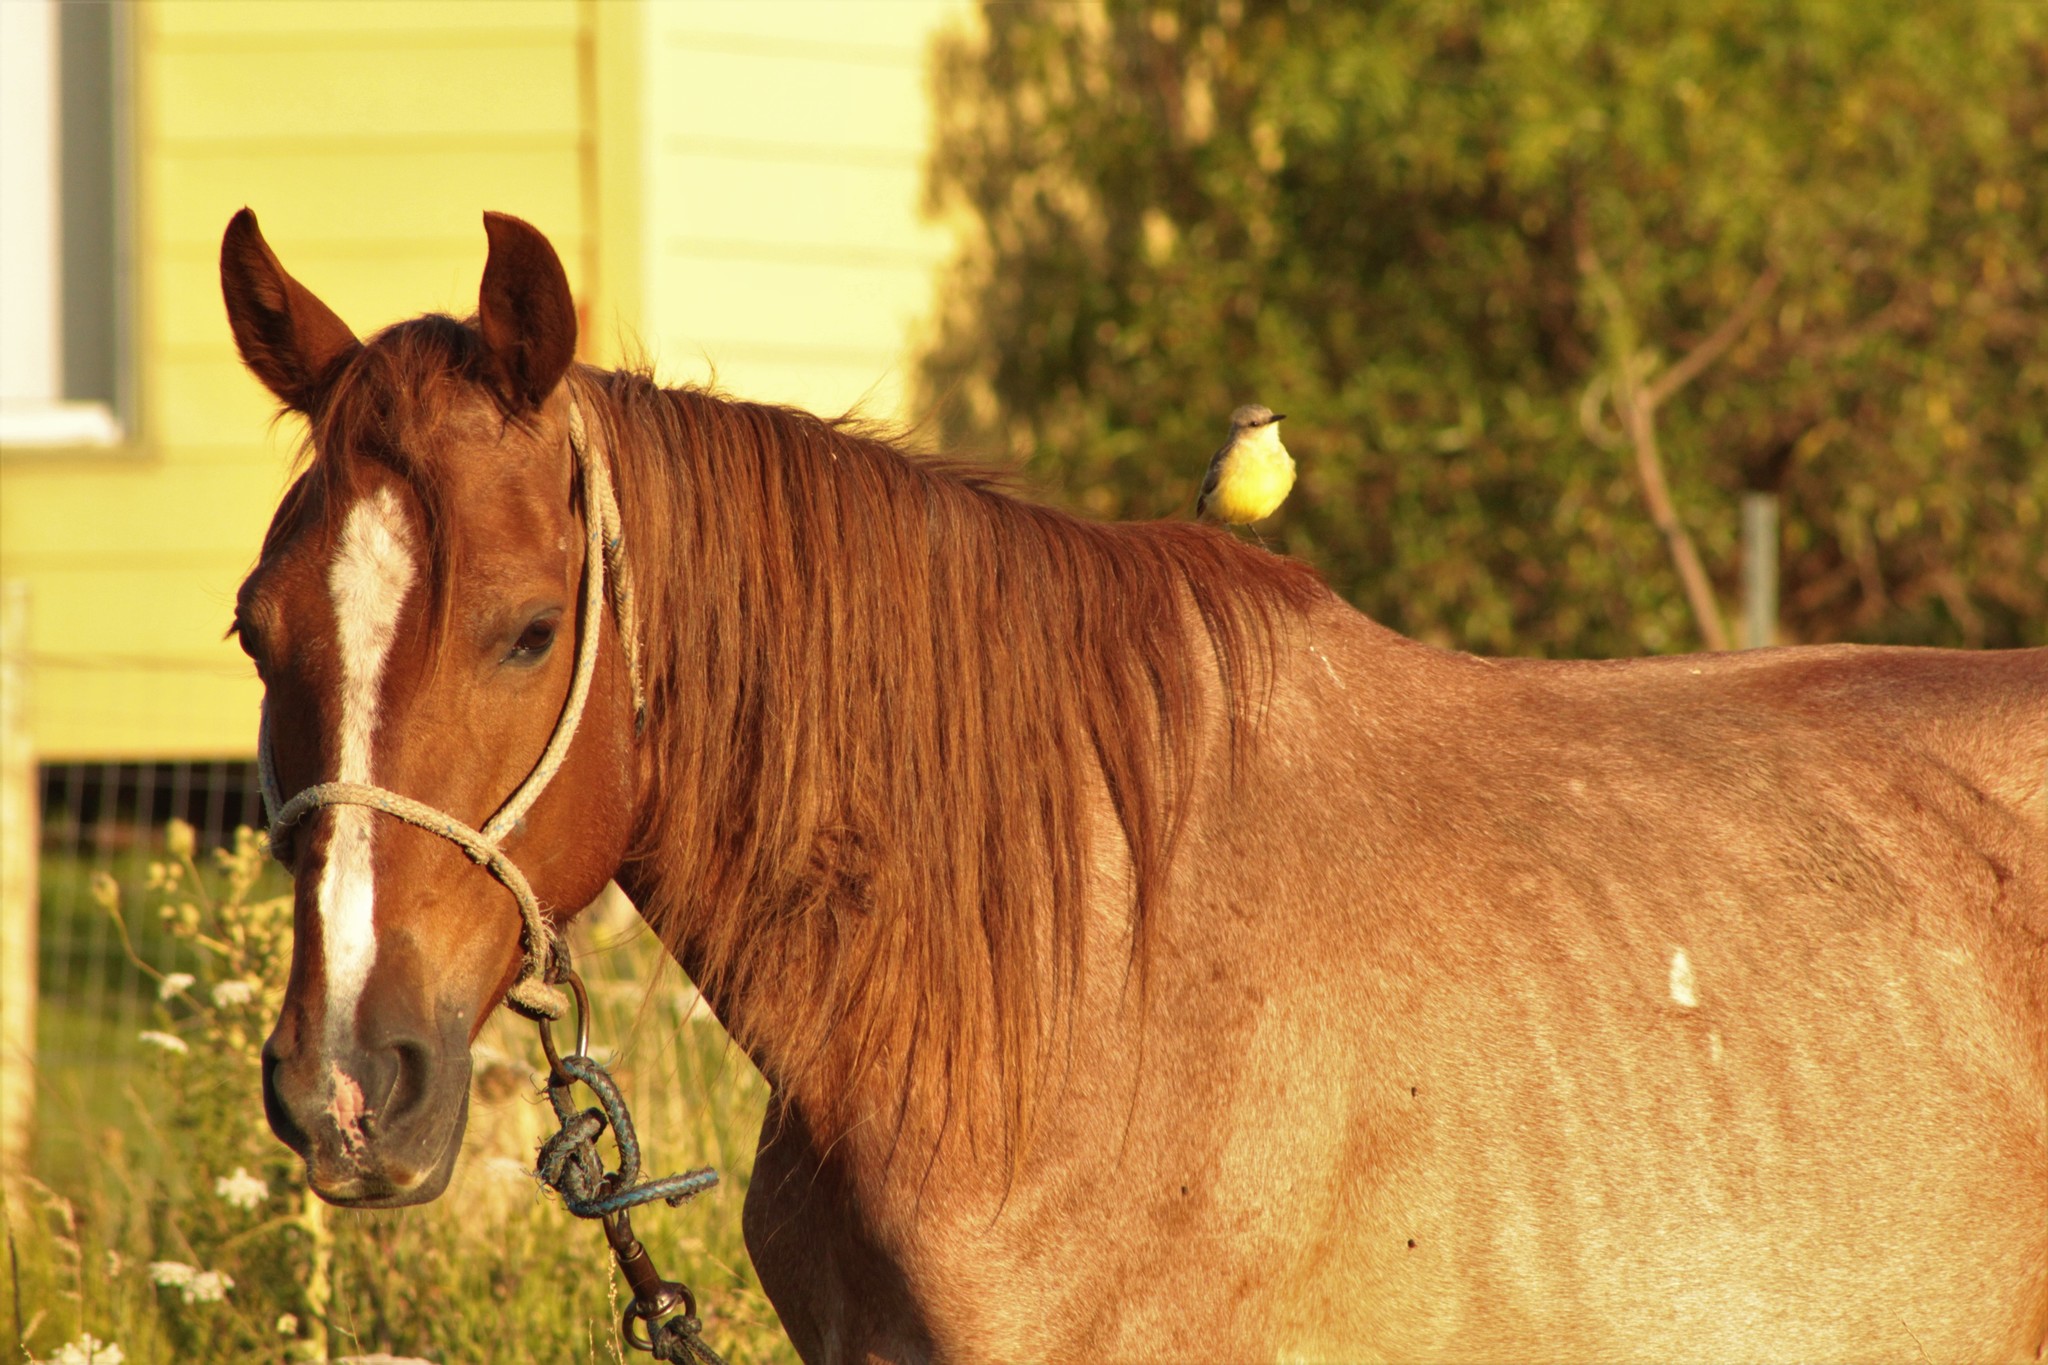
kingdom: Animalia
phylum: Chordata
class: Aves
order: Passeriformes
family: Tyrannidae
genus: Machetornis
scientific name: Machetornis rixosa
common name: Cattle tyrant
